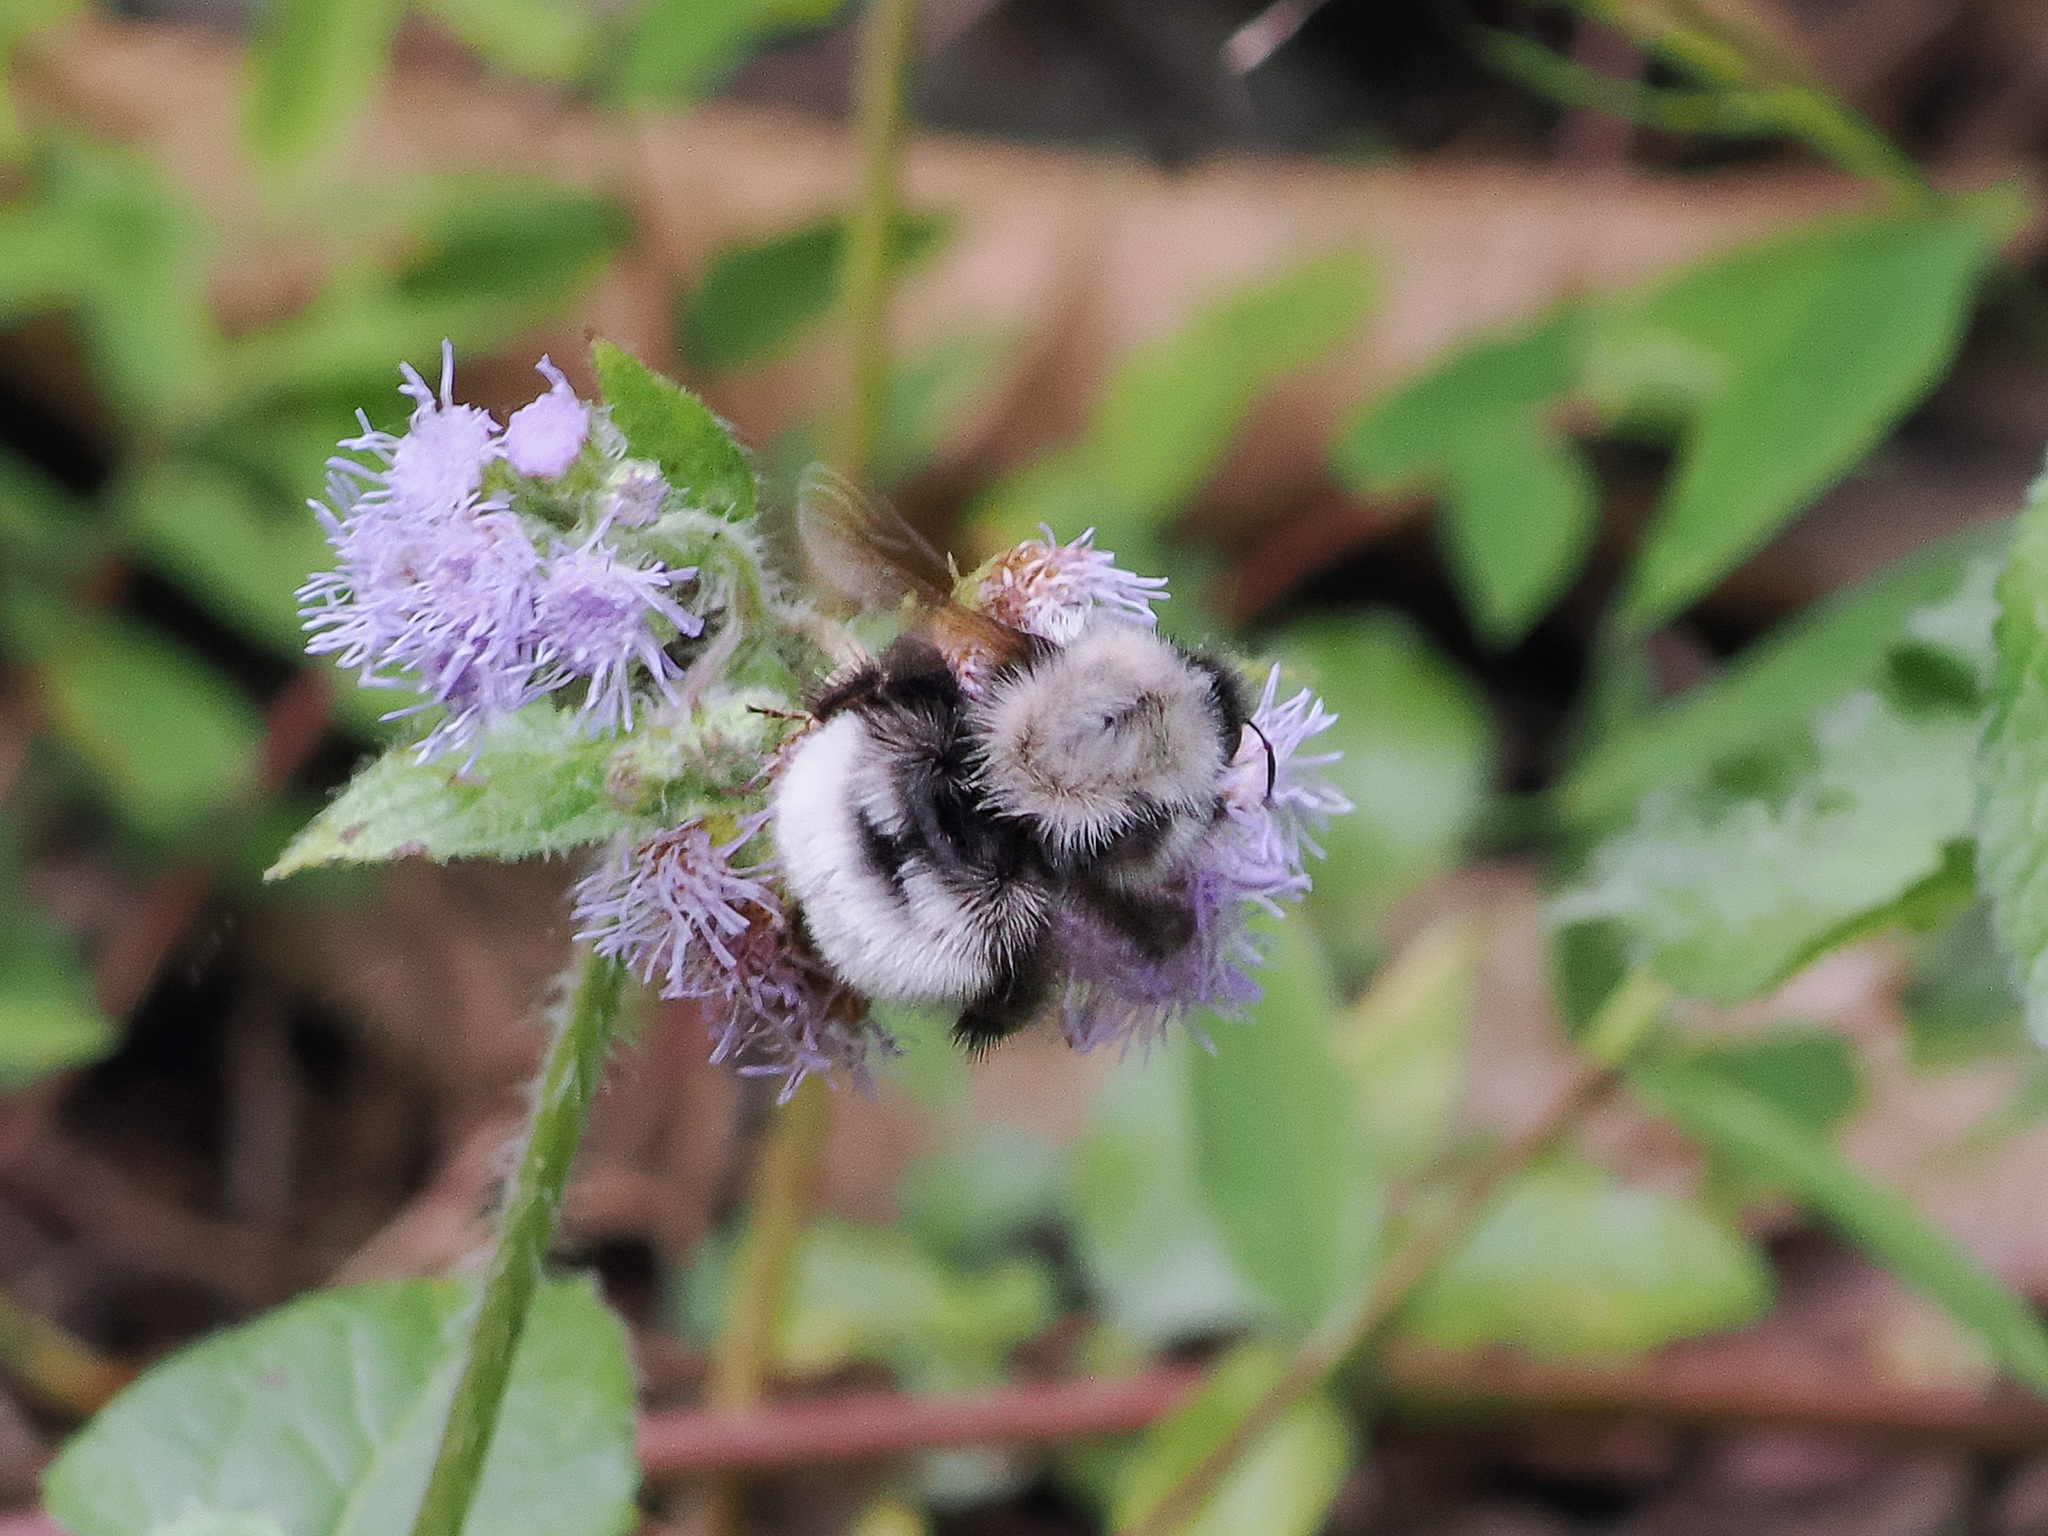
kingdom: Animalia
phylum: Arthropoda
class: Insecta
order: Hymenoptera
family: Apidae
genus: Bombus
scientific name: Bombus senex
